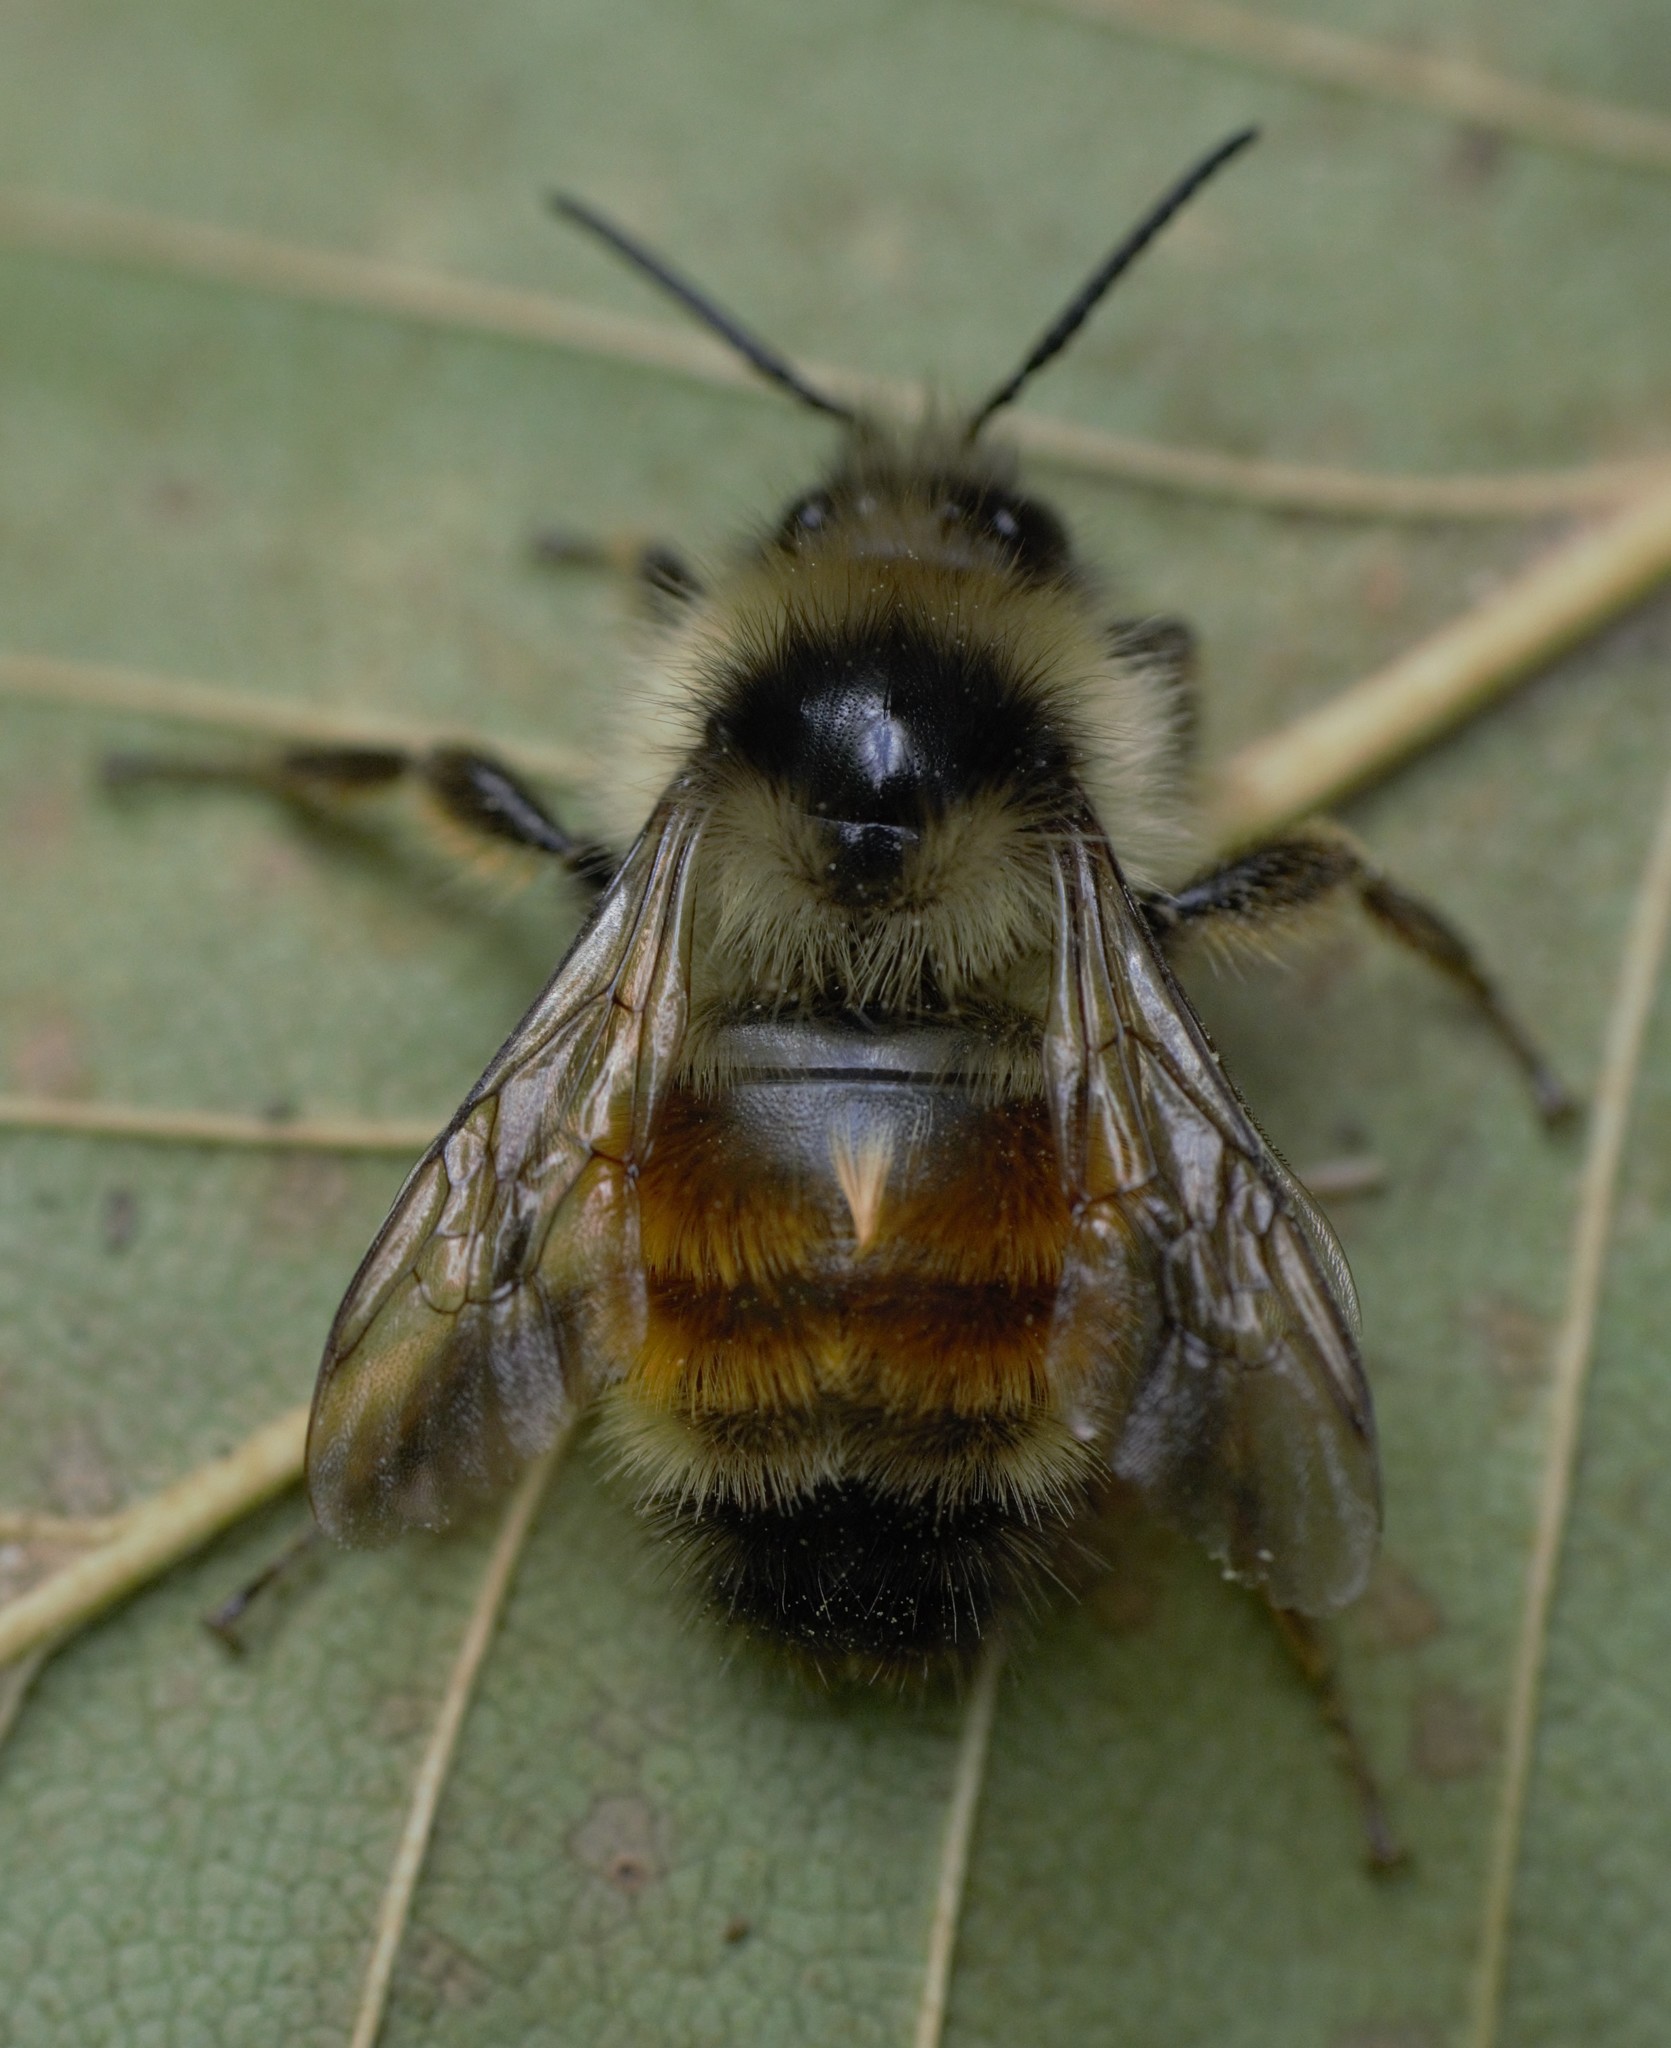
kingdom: Animalia
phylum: Arthropoda
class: Insecta
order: Hymenoptera
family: Apidae
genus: Bombus
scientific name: Bombus ternarius
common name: Tri-colored bumble bee
